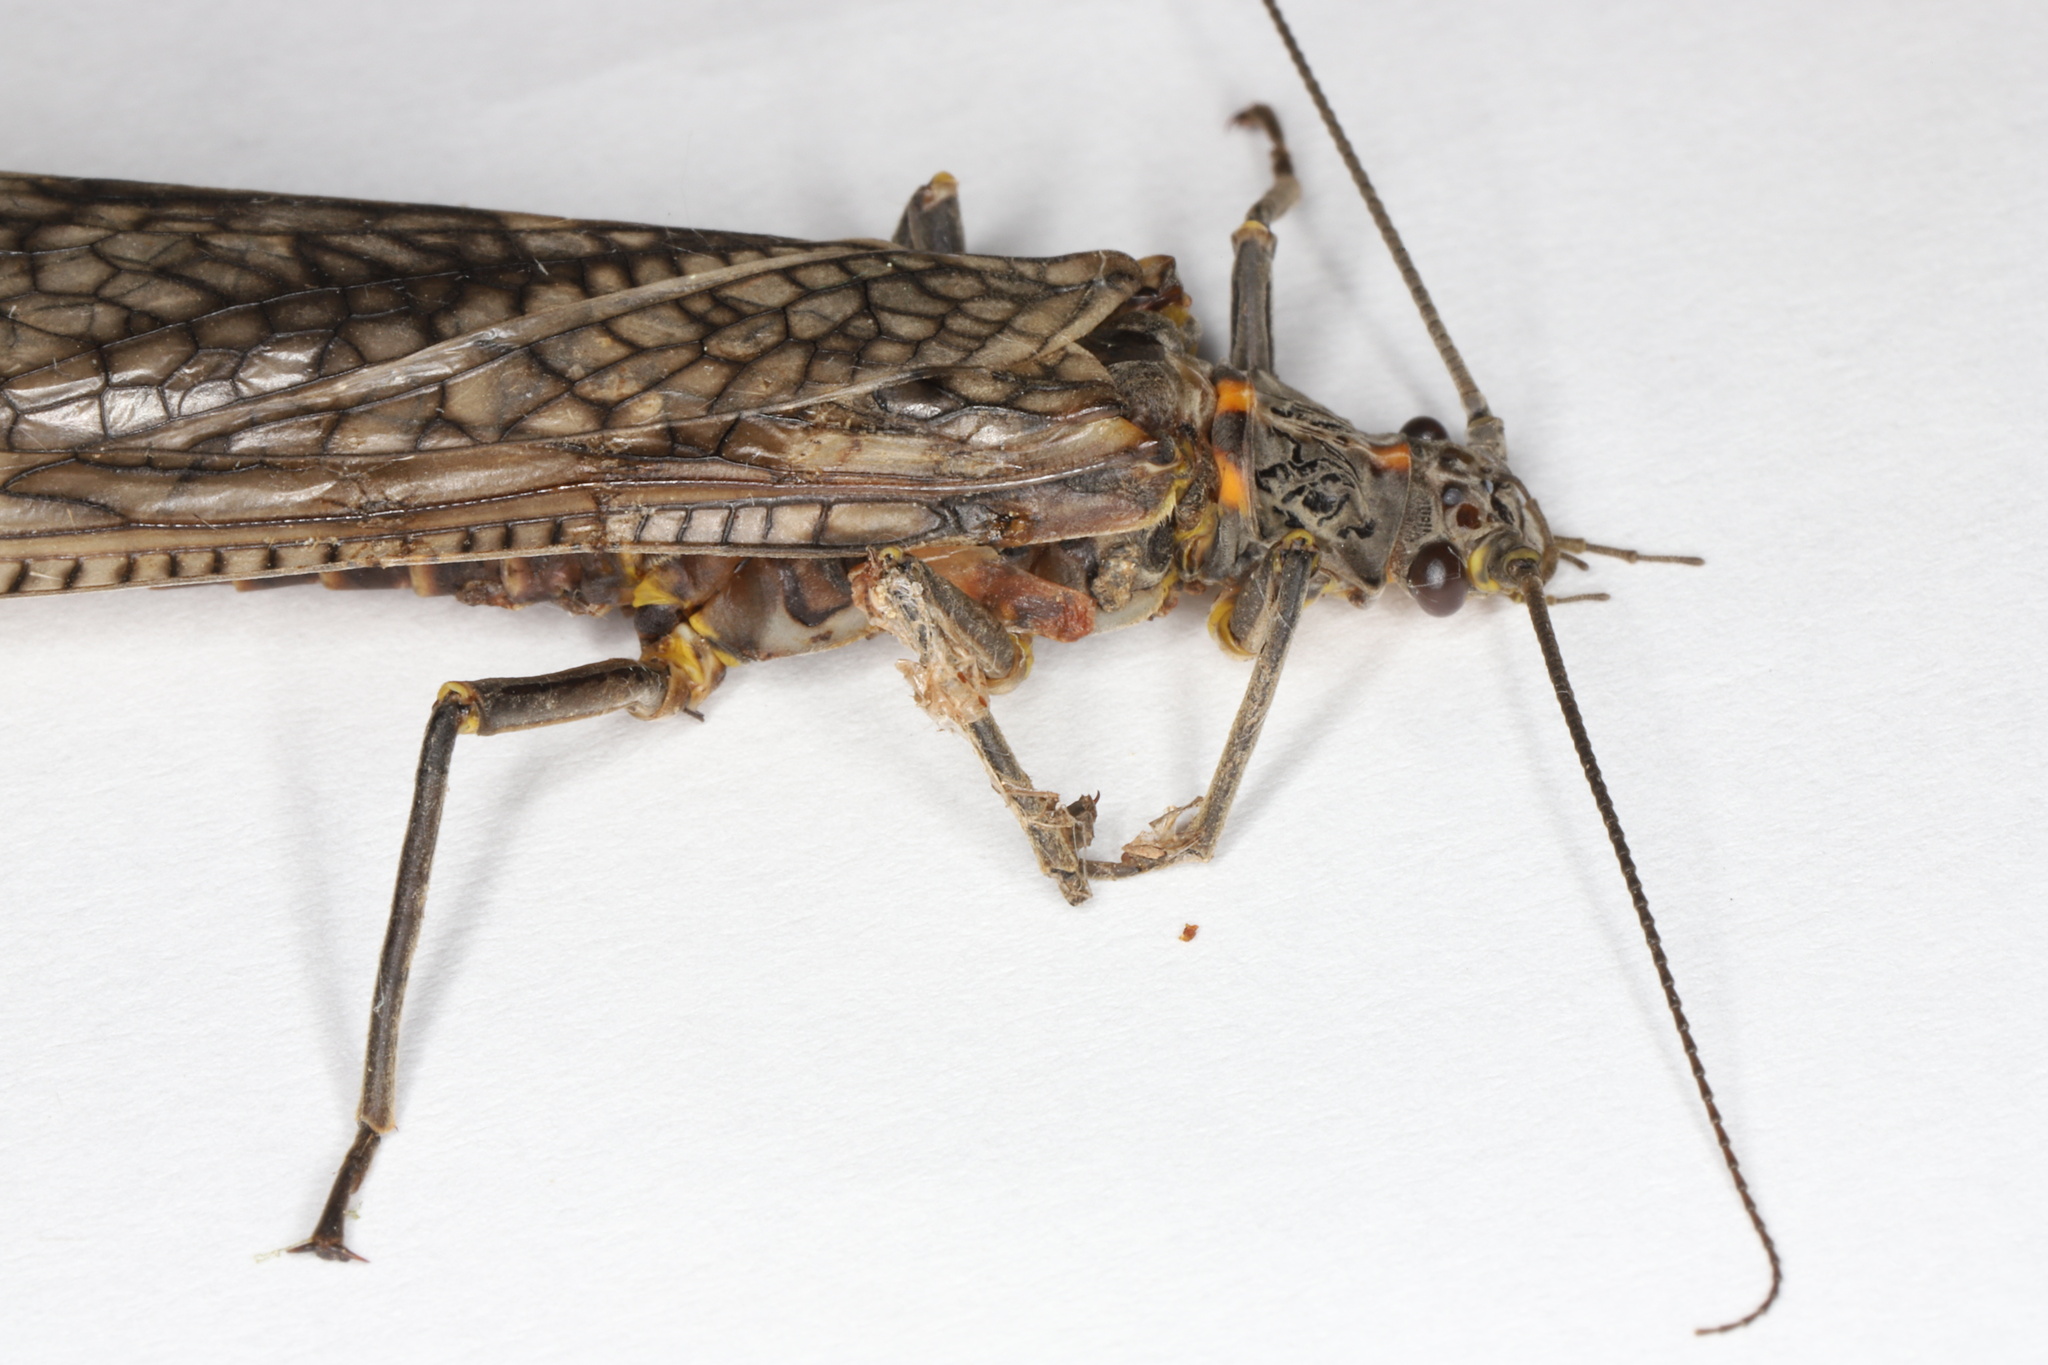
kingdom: Animalia
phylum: Arthropoda
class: Insecta
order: Plecoptera
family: Pteronarcyidae
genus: Pteronarcys
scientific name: Pteronarcys dorsata
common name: American salmonfly
